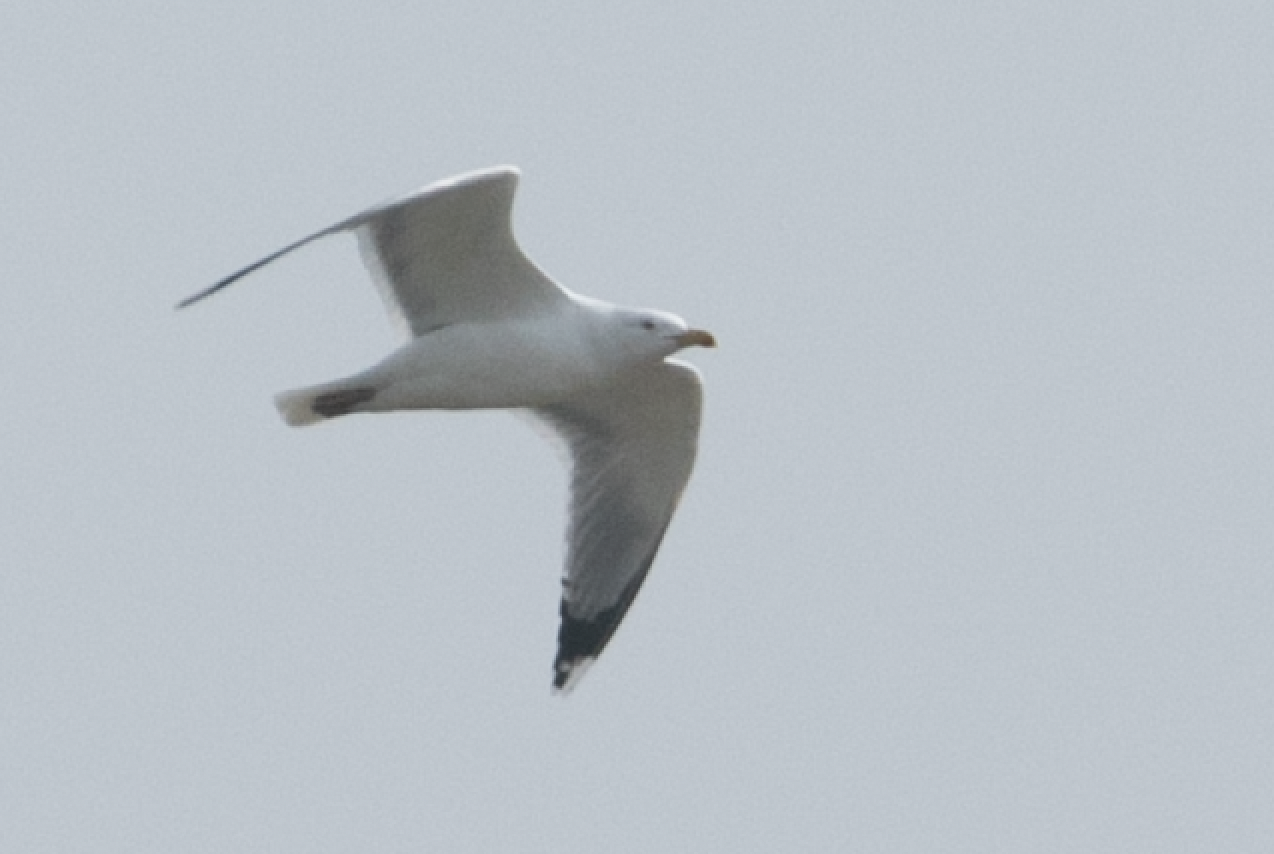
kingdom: Animalia
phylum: Chordata
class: Aves
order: Charadriiformes
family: Laridae
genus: Larus
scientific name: Larus michahellis
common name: Yellow-legged gull
